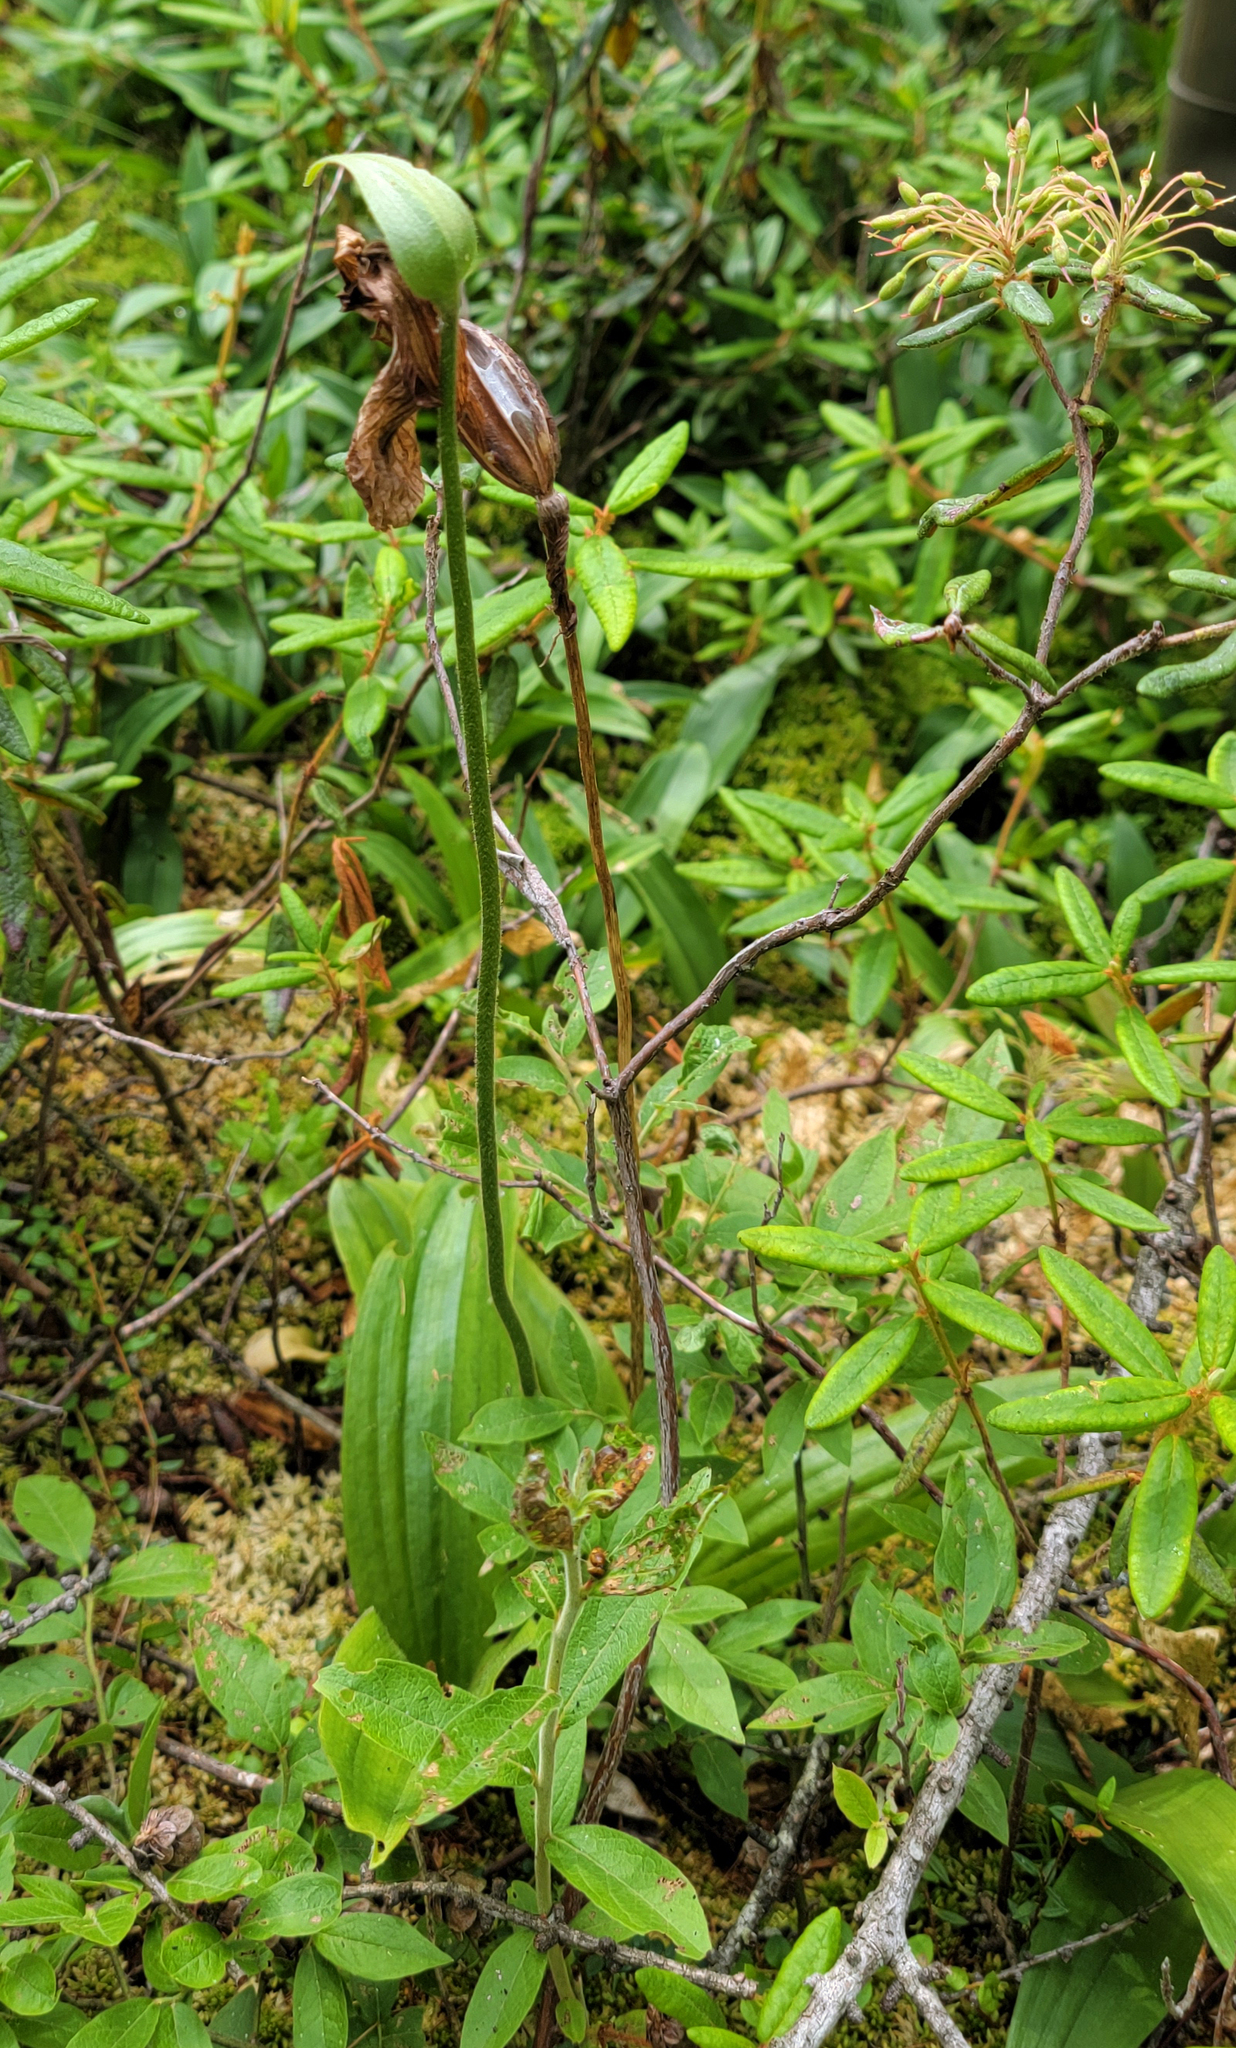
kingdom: Plantae
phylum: Tracheophyta
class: Liliopsida
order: Asparagales
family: Orchidaceae
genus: Cypripedium
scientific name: Cypripedium acaule
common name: Pink lady's-slipper
